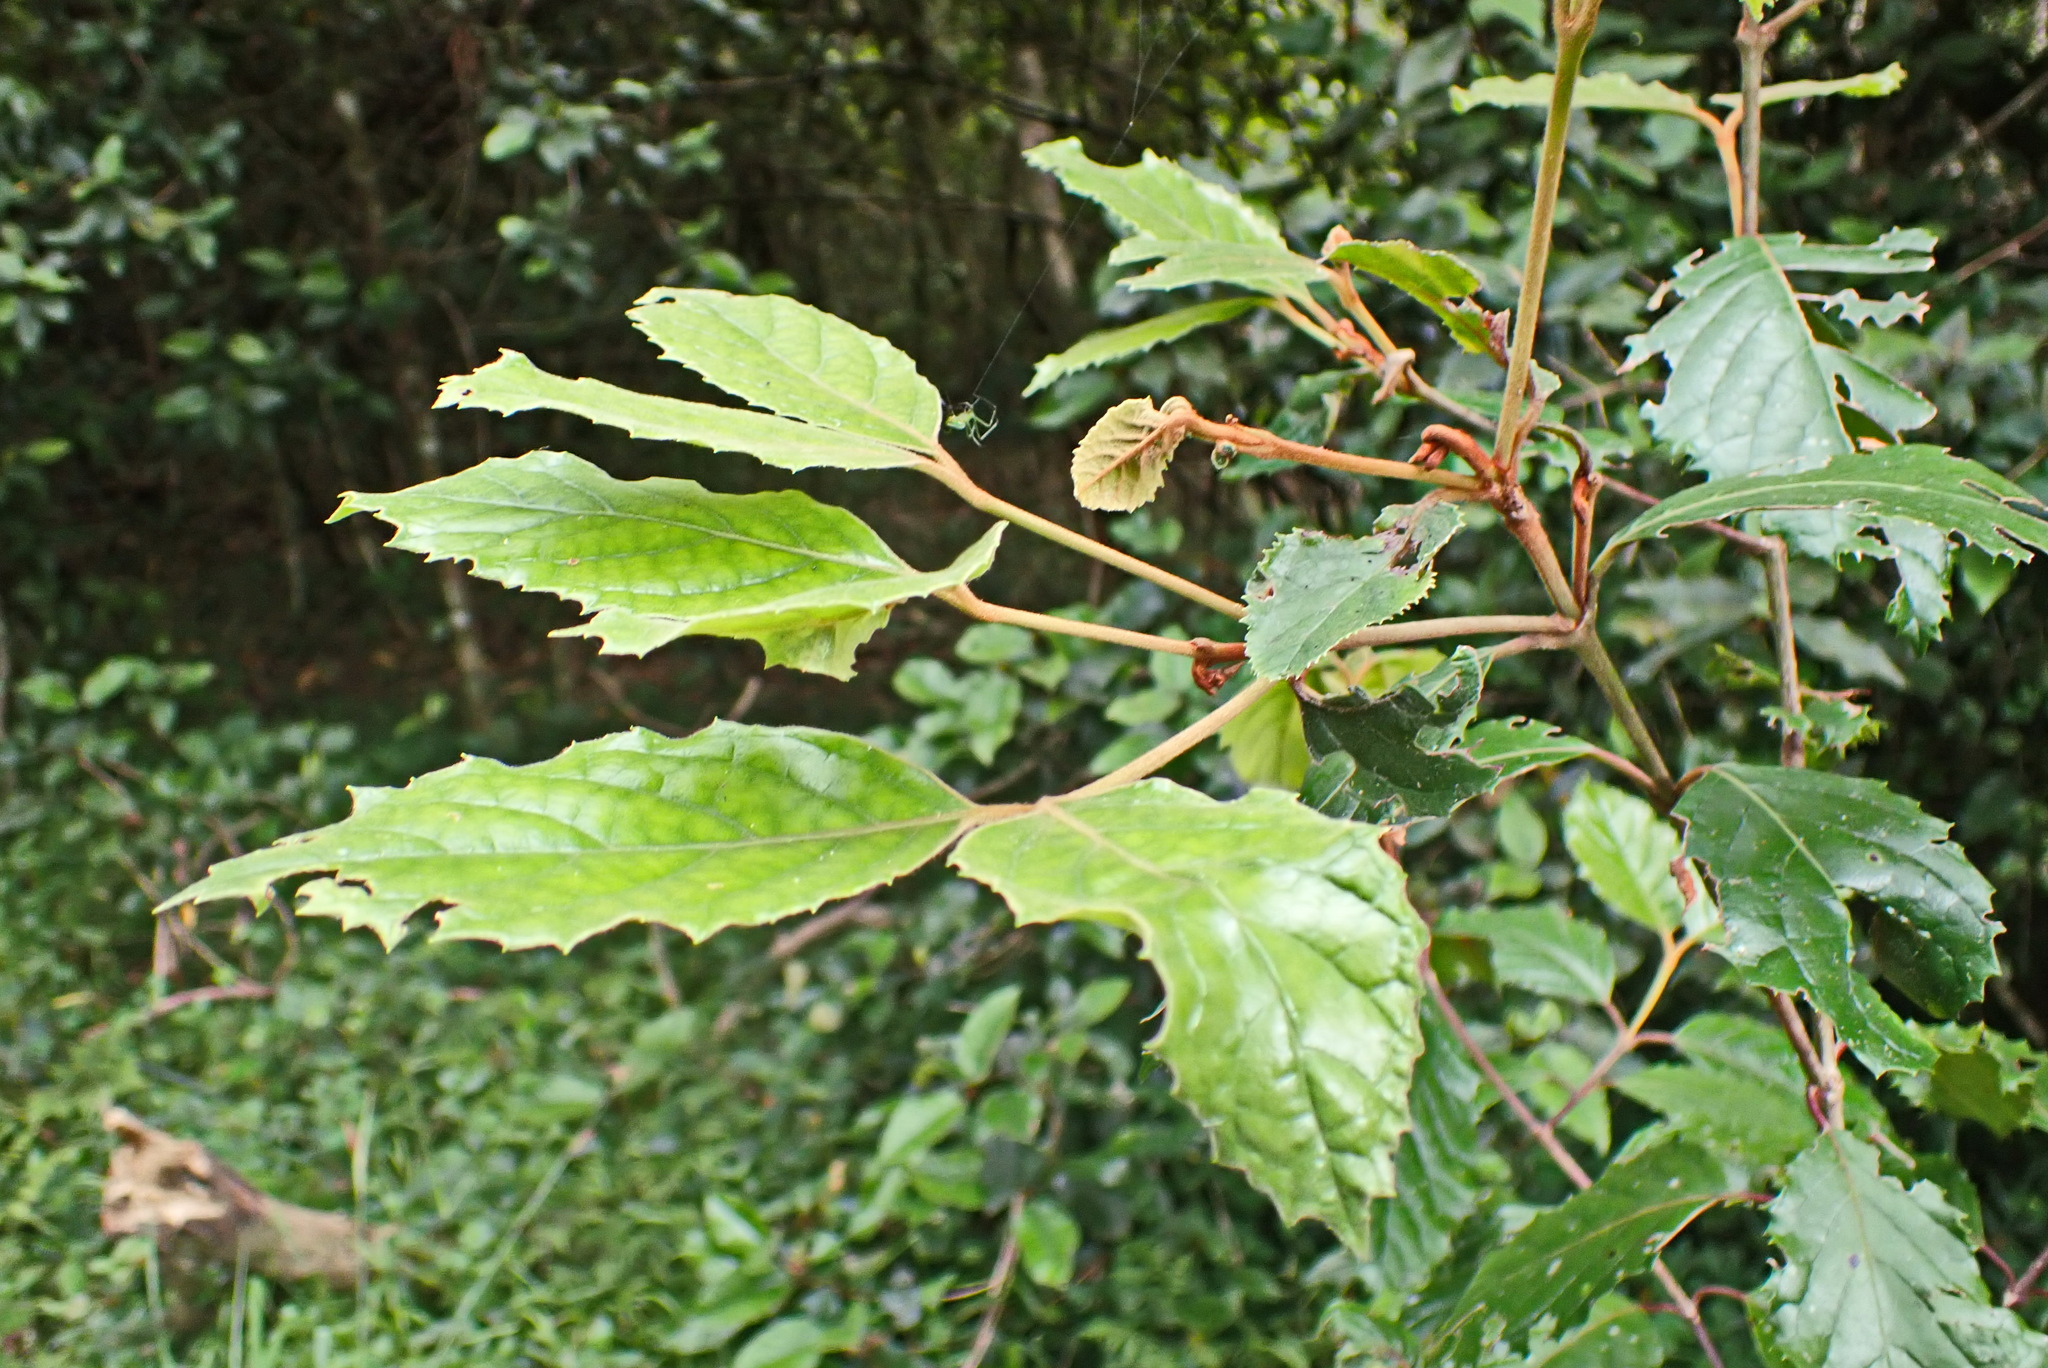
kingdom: Plantae
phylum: Tracheophyta
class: Magnoliopsida
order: Cornales
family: Curtisiaceae
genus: Curtisia
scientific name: Curtisia dentata
